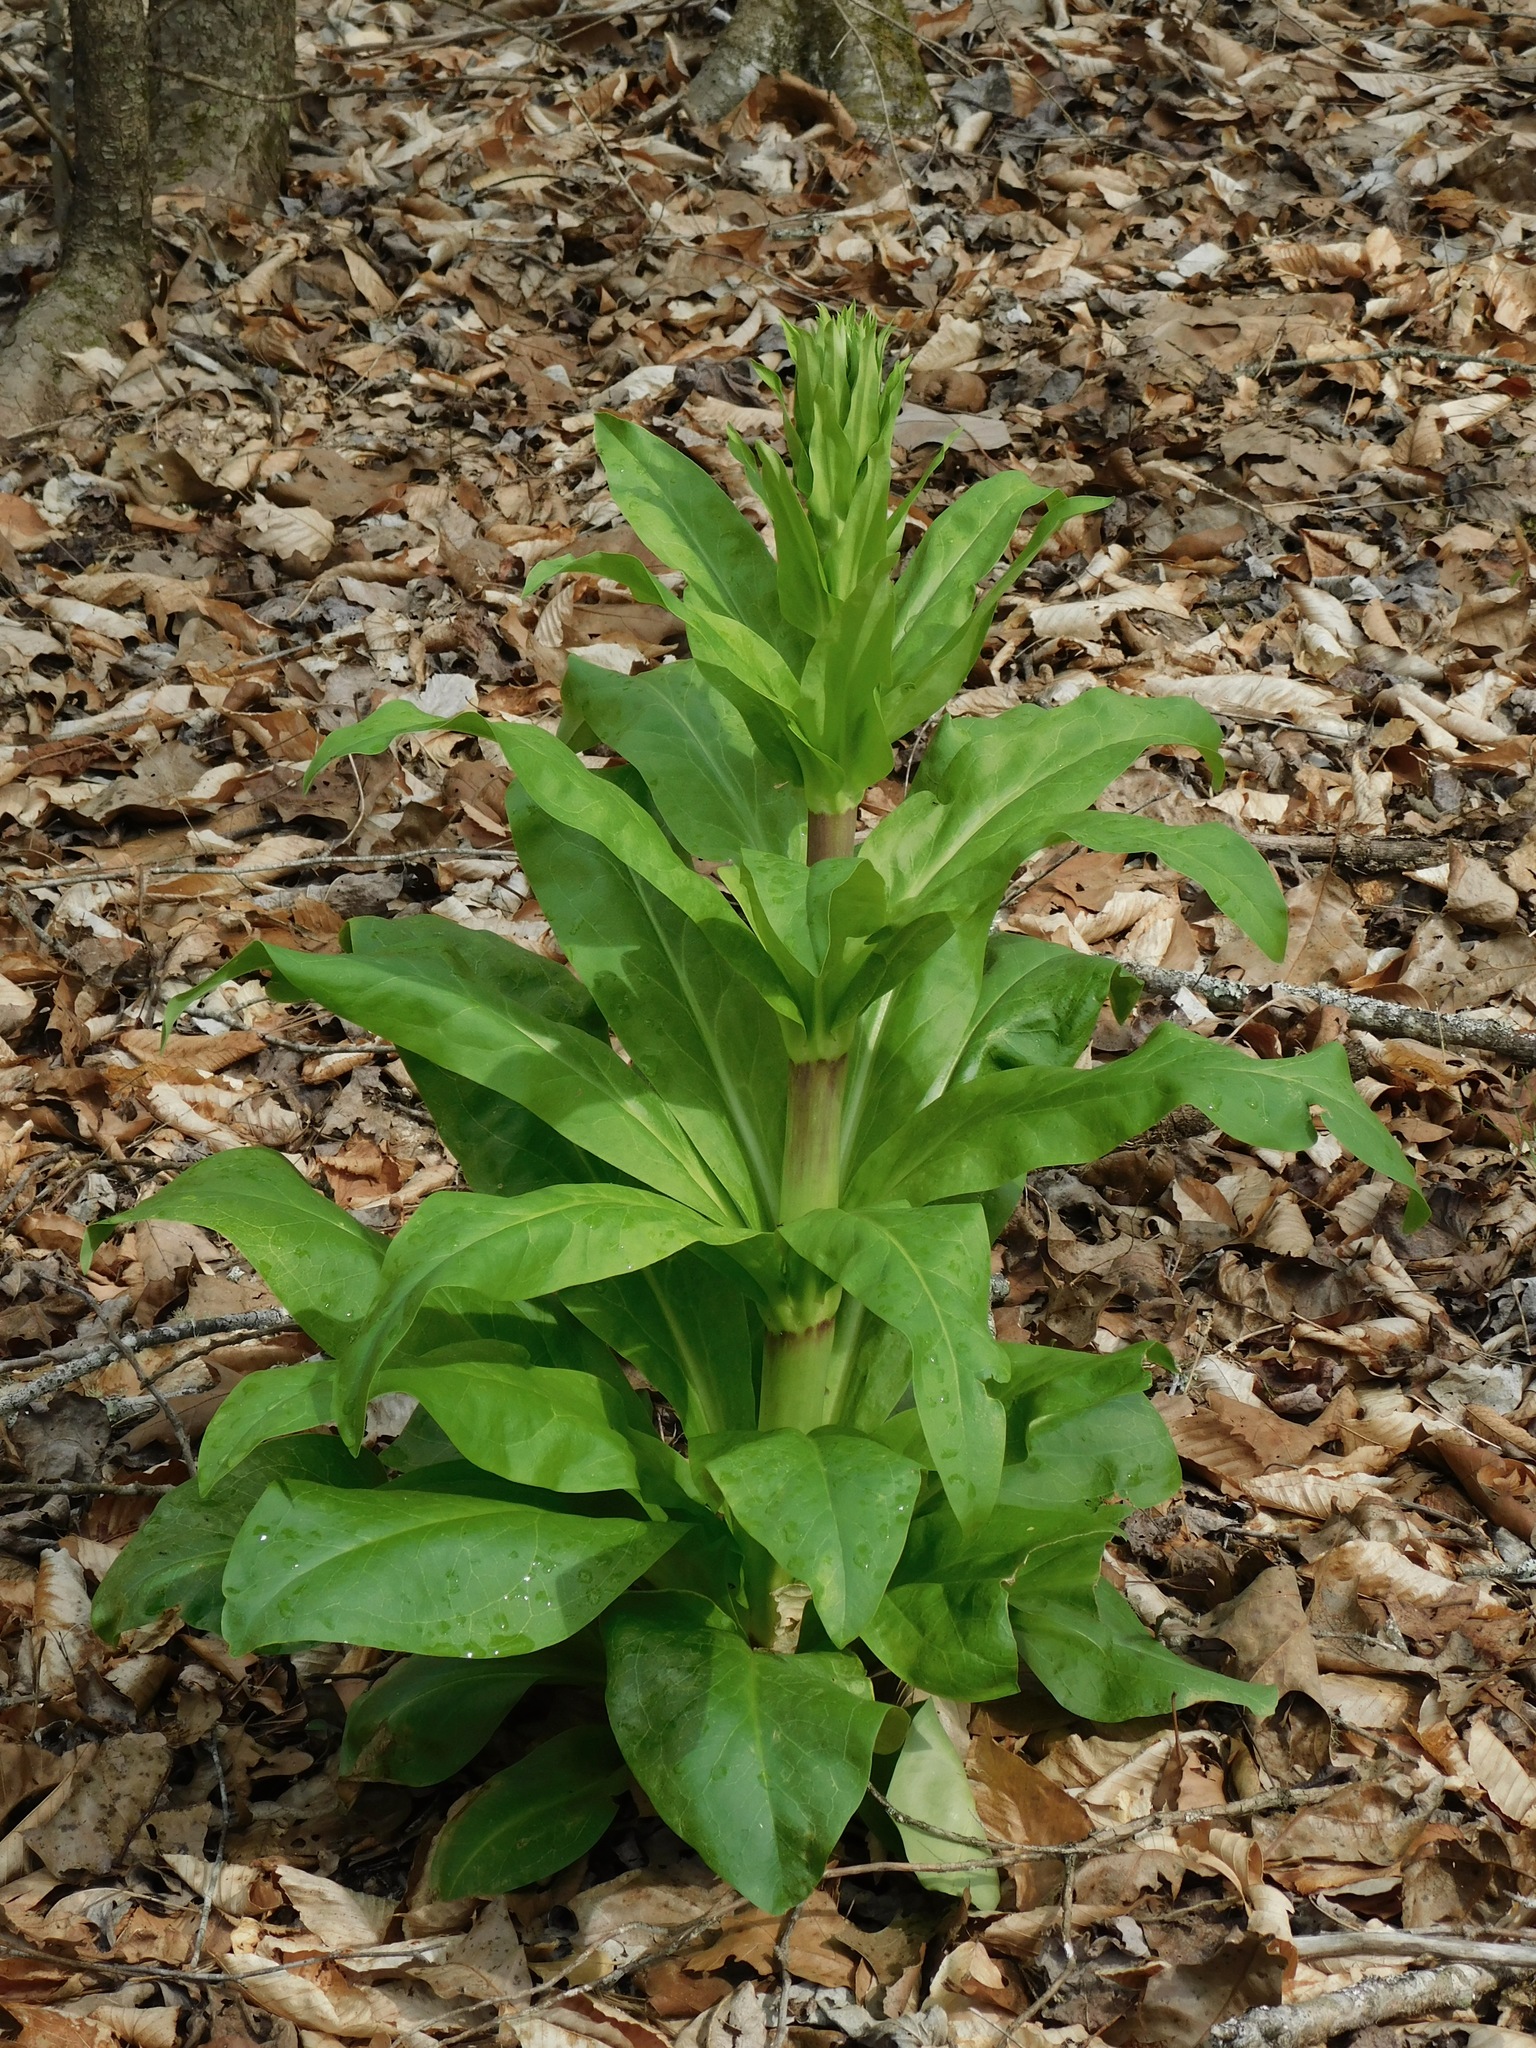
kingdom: Plantae
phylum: Tracheophyta
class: Magnoliopsida
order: Gentianales
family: Gentianaceae
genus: Frasera
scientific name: Frasera caroliniensis
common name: American columbo
